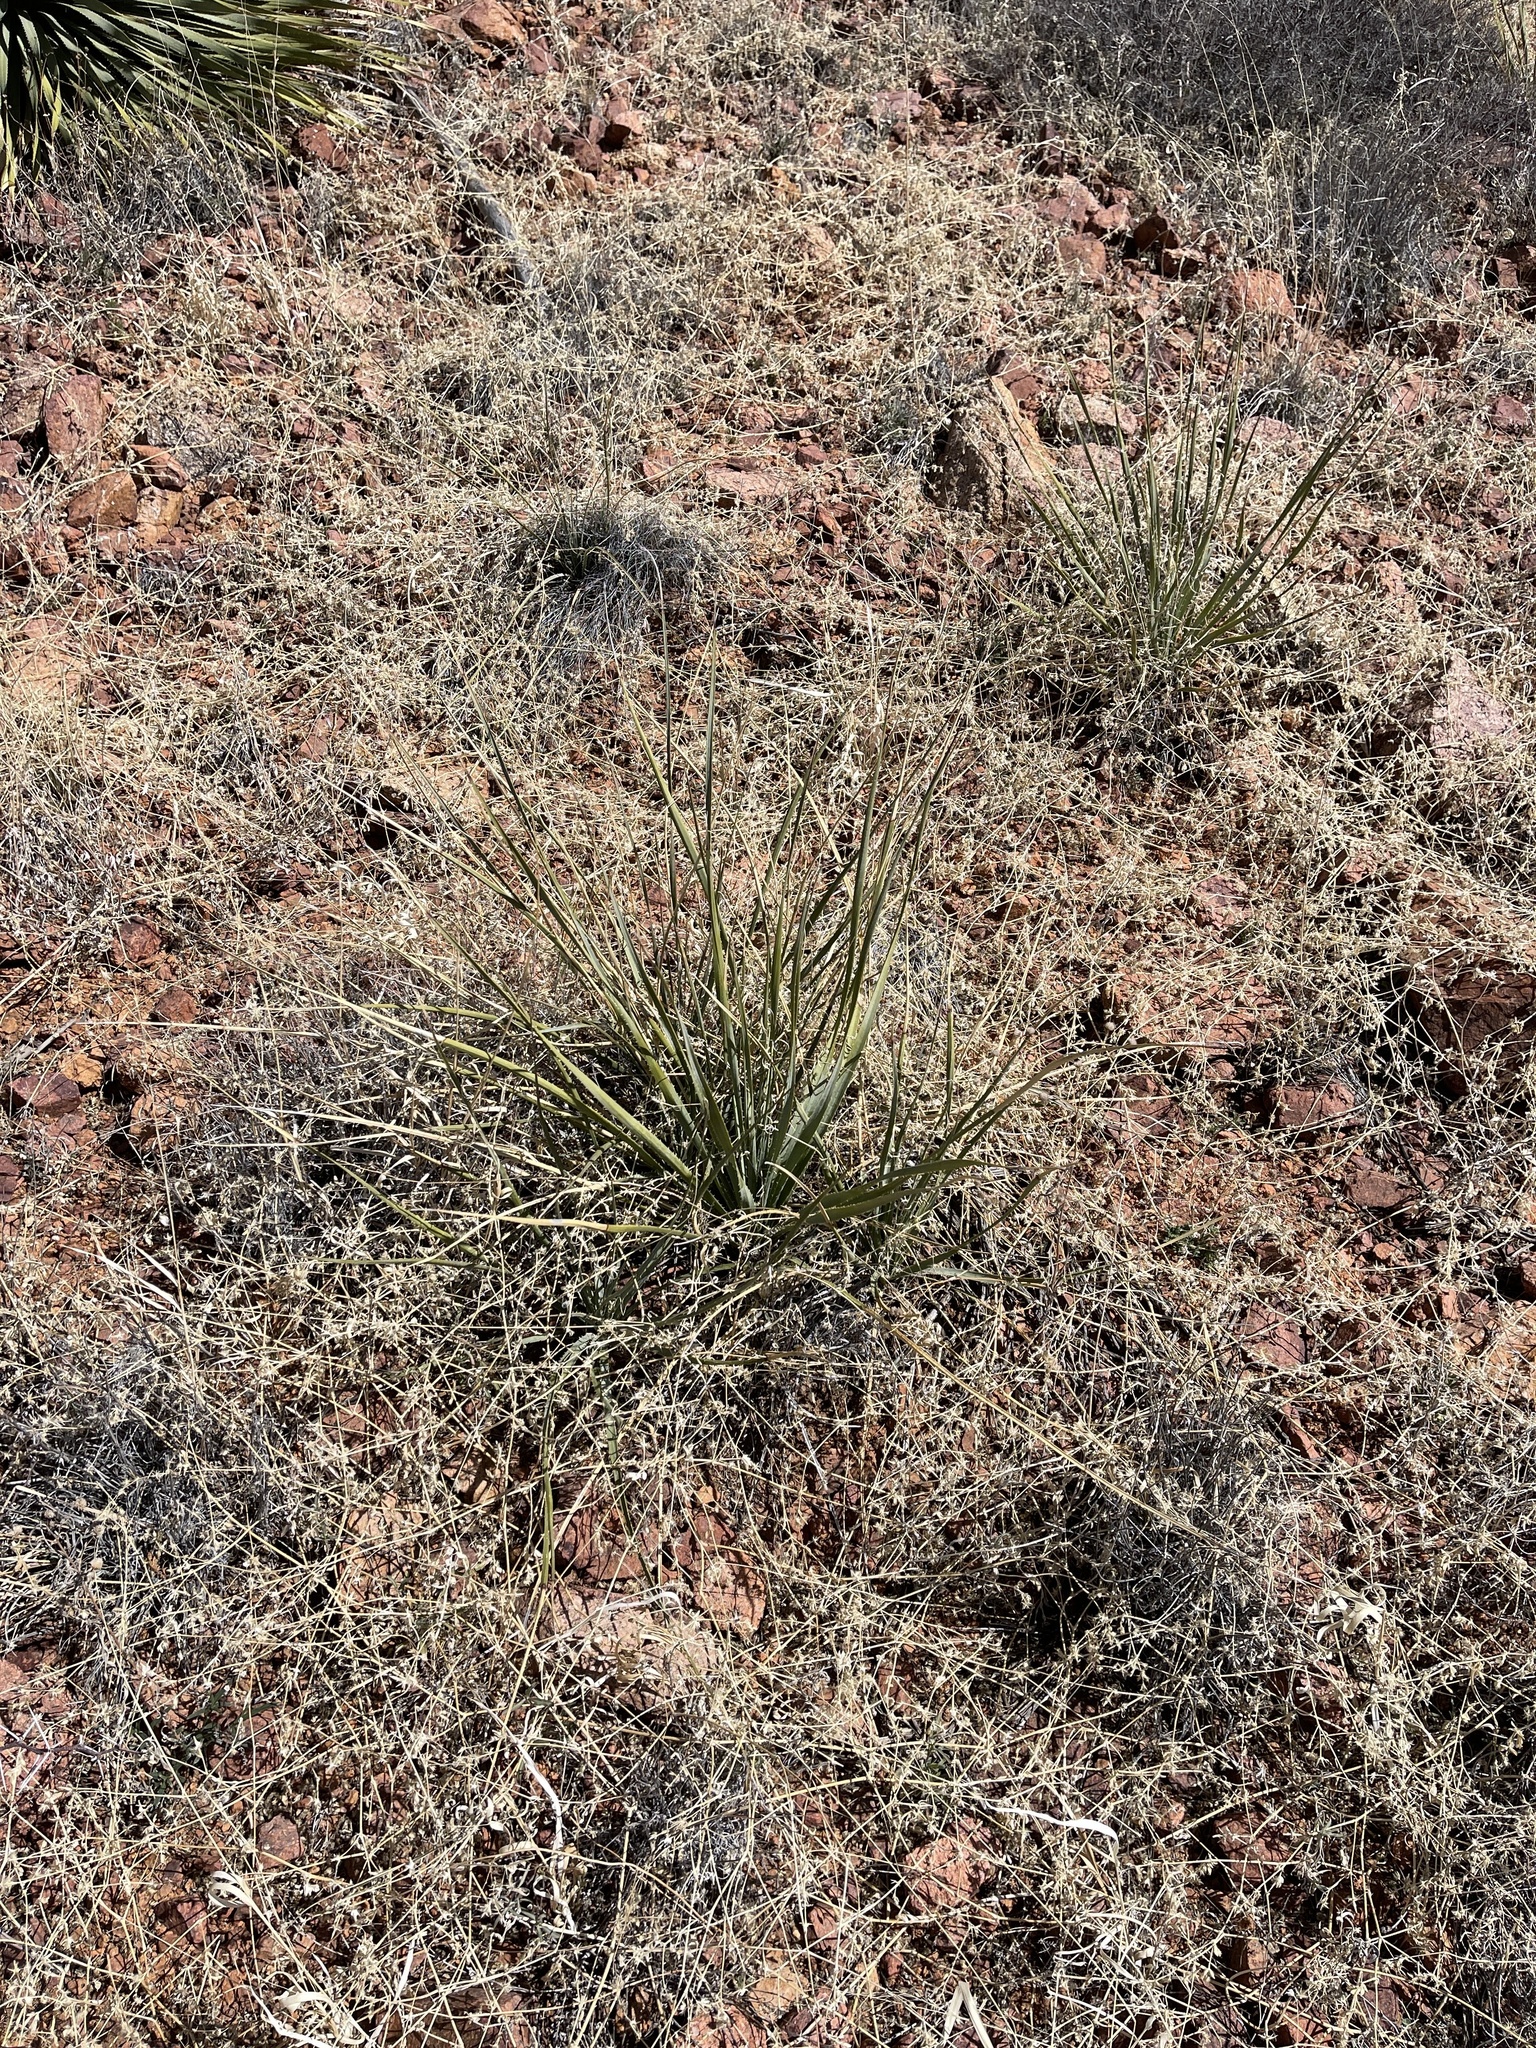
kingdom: Plantae
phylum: Tracheophyta
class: Liliopsida
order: Asparagales
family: Asparagaceae
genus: Dasylirion
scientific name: Dasylirion wheeleri
